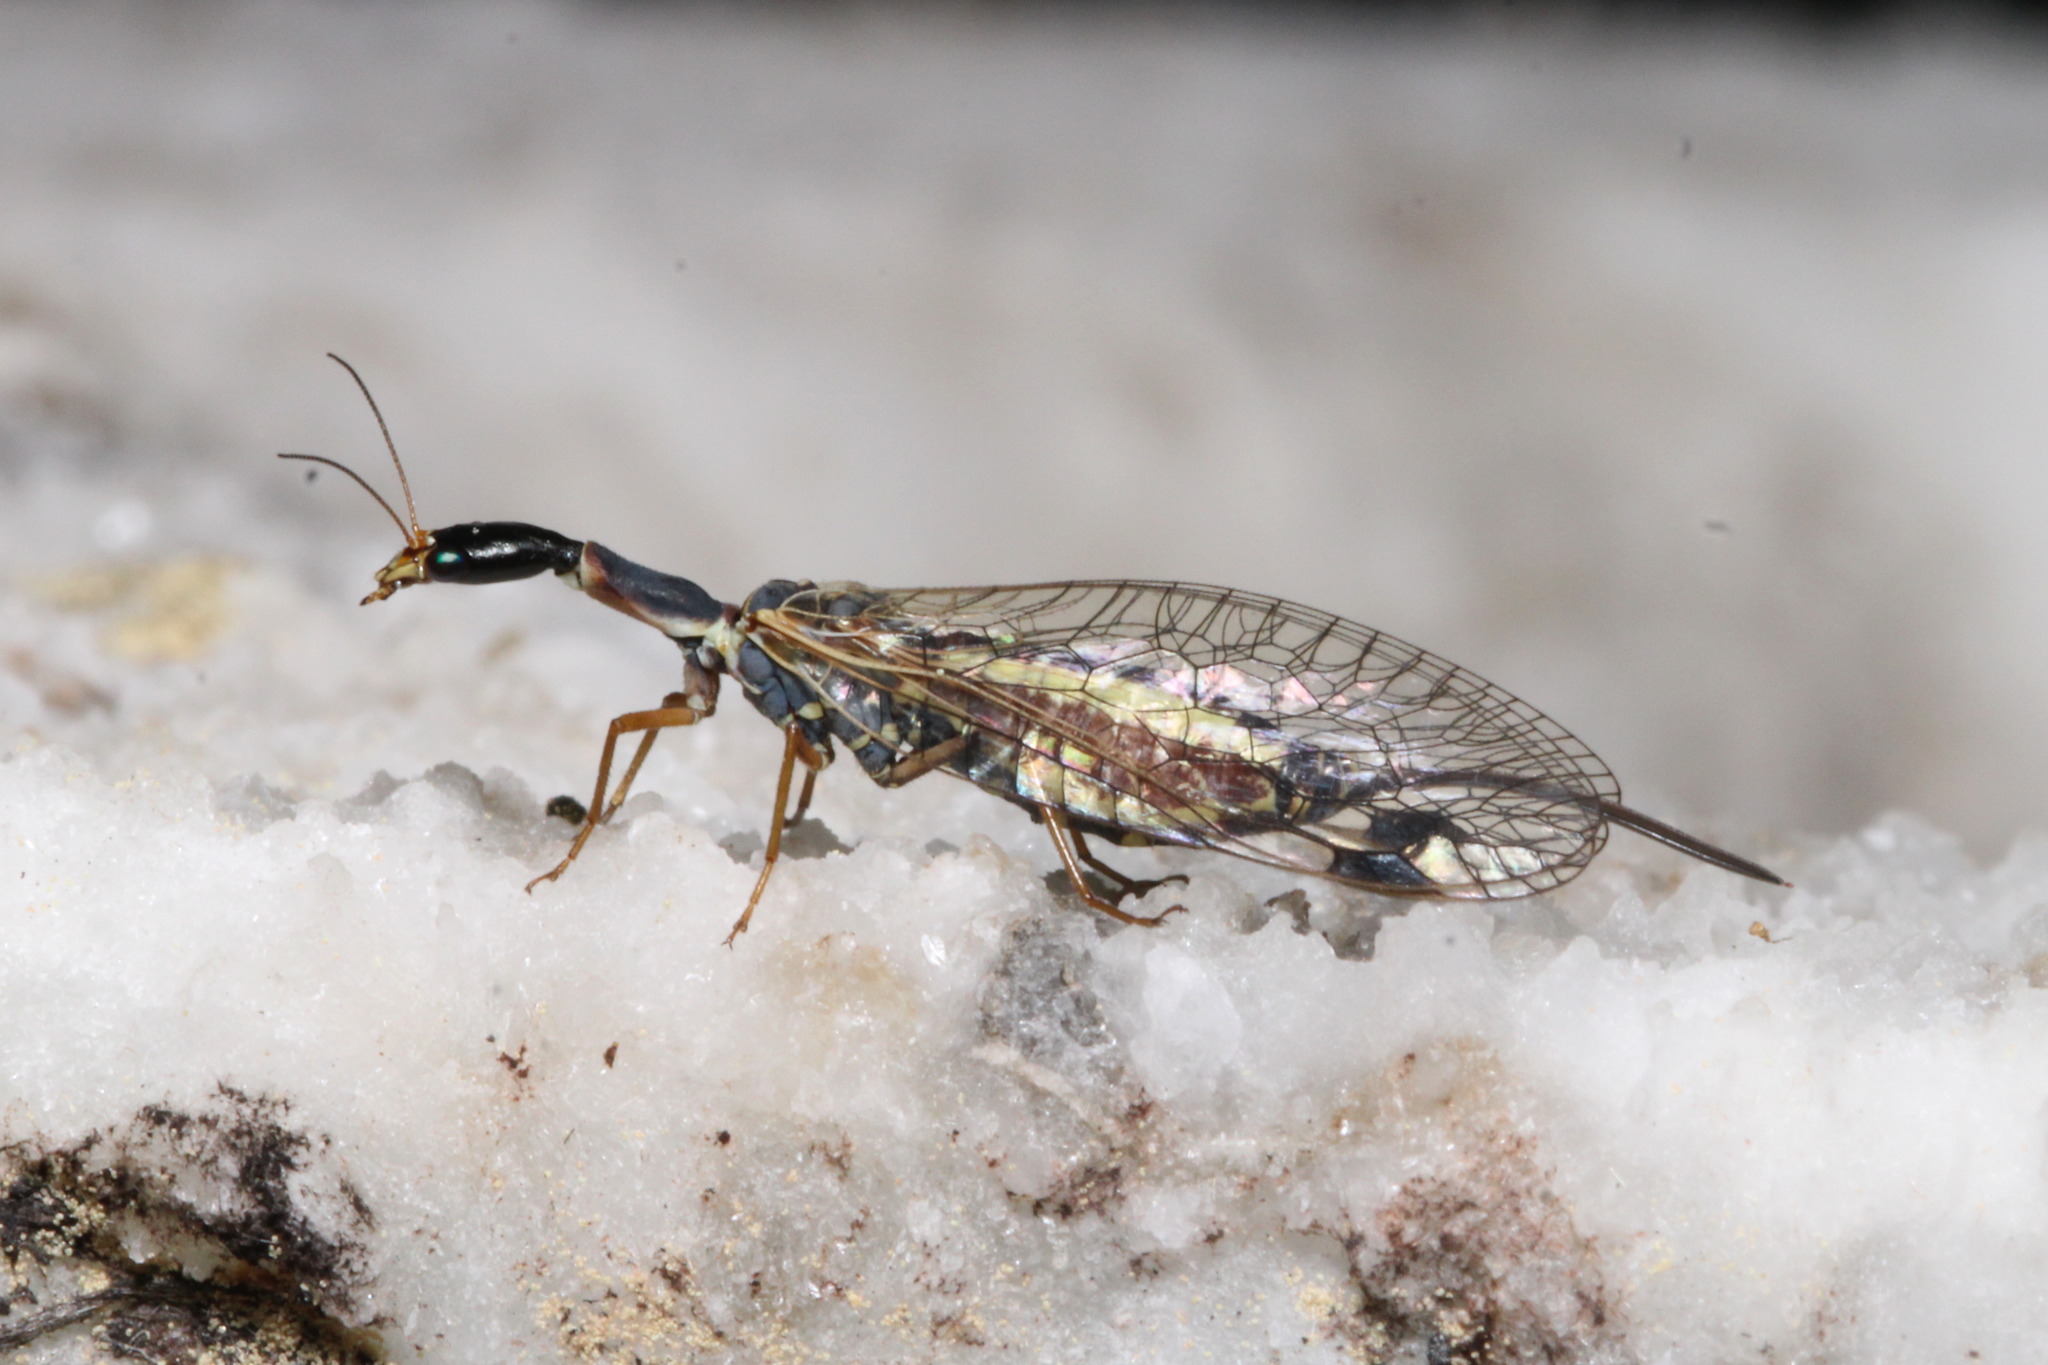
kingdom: Animalia
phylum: Arthropoda
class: Insecta
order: Raphidioptera
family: Raphidiidae
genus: Ornatoraphidia
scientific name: Ornatoraphidia flavilabris
